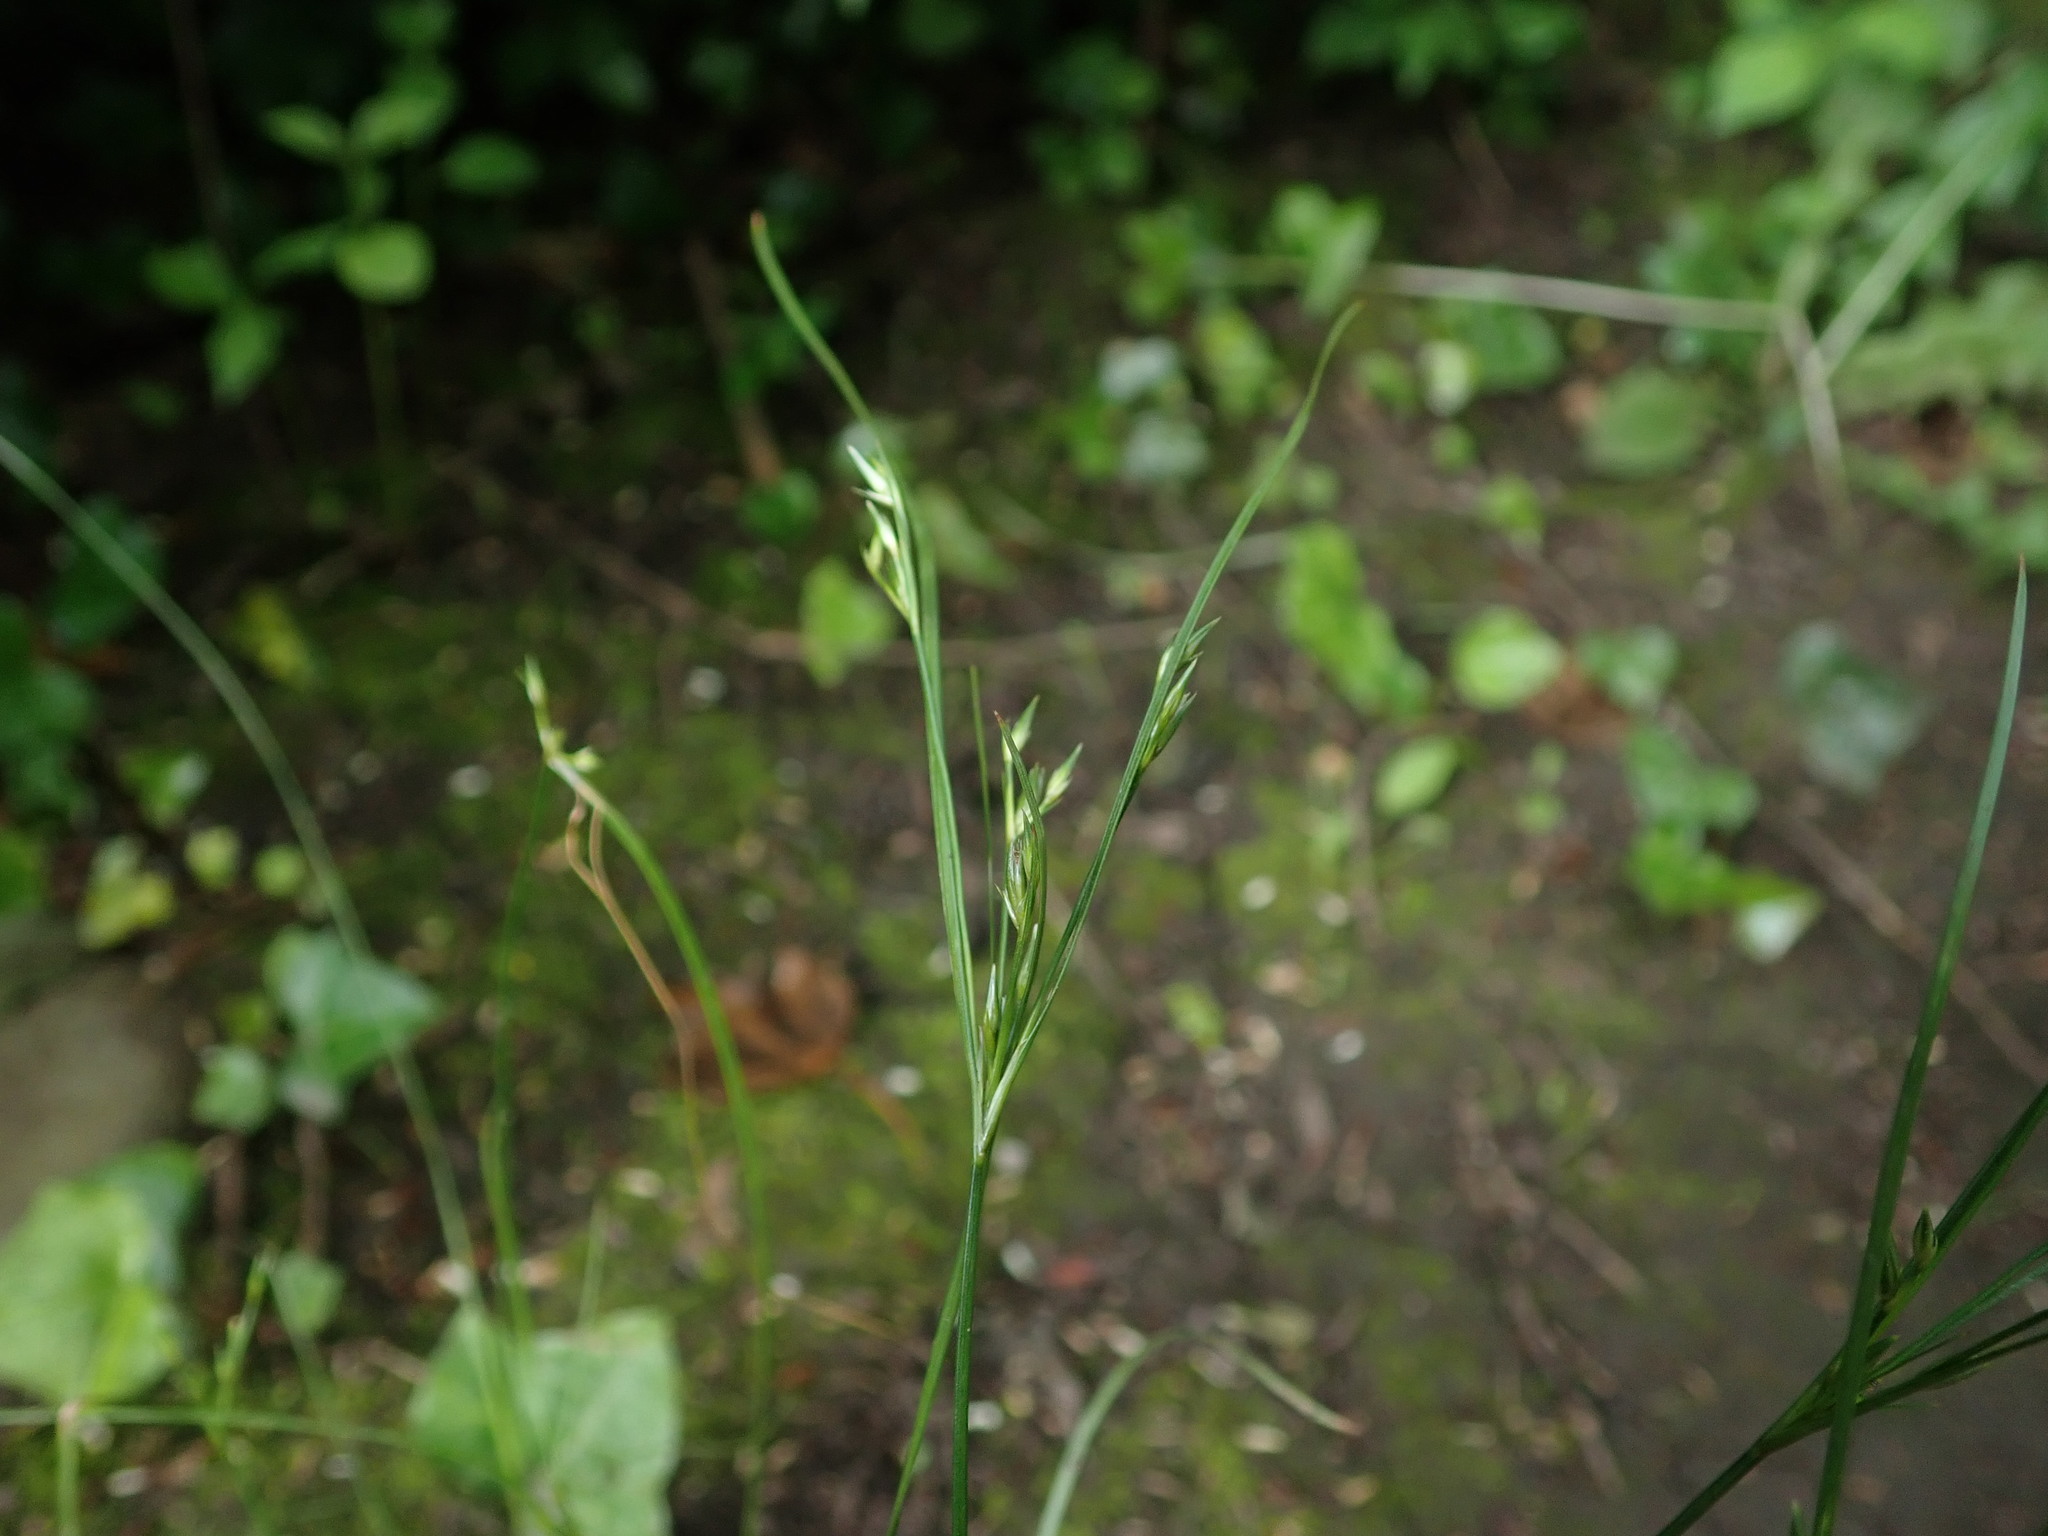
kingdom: Plantae
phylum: Tracheophyta
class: Liliopsida
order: Poales
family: Juncaceae
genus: Juncus
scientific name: Juncus tenuis
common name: Slender rush
